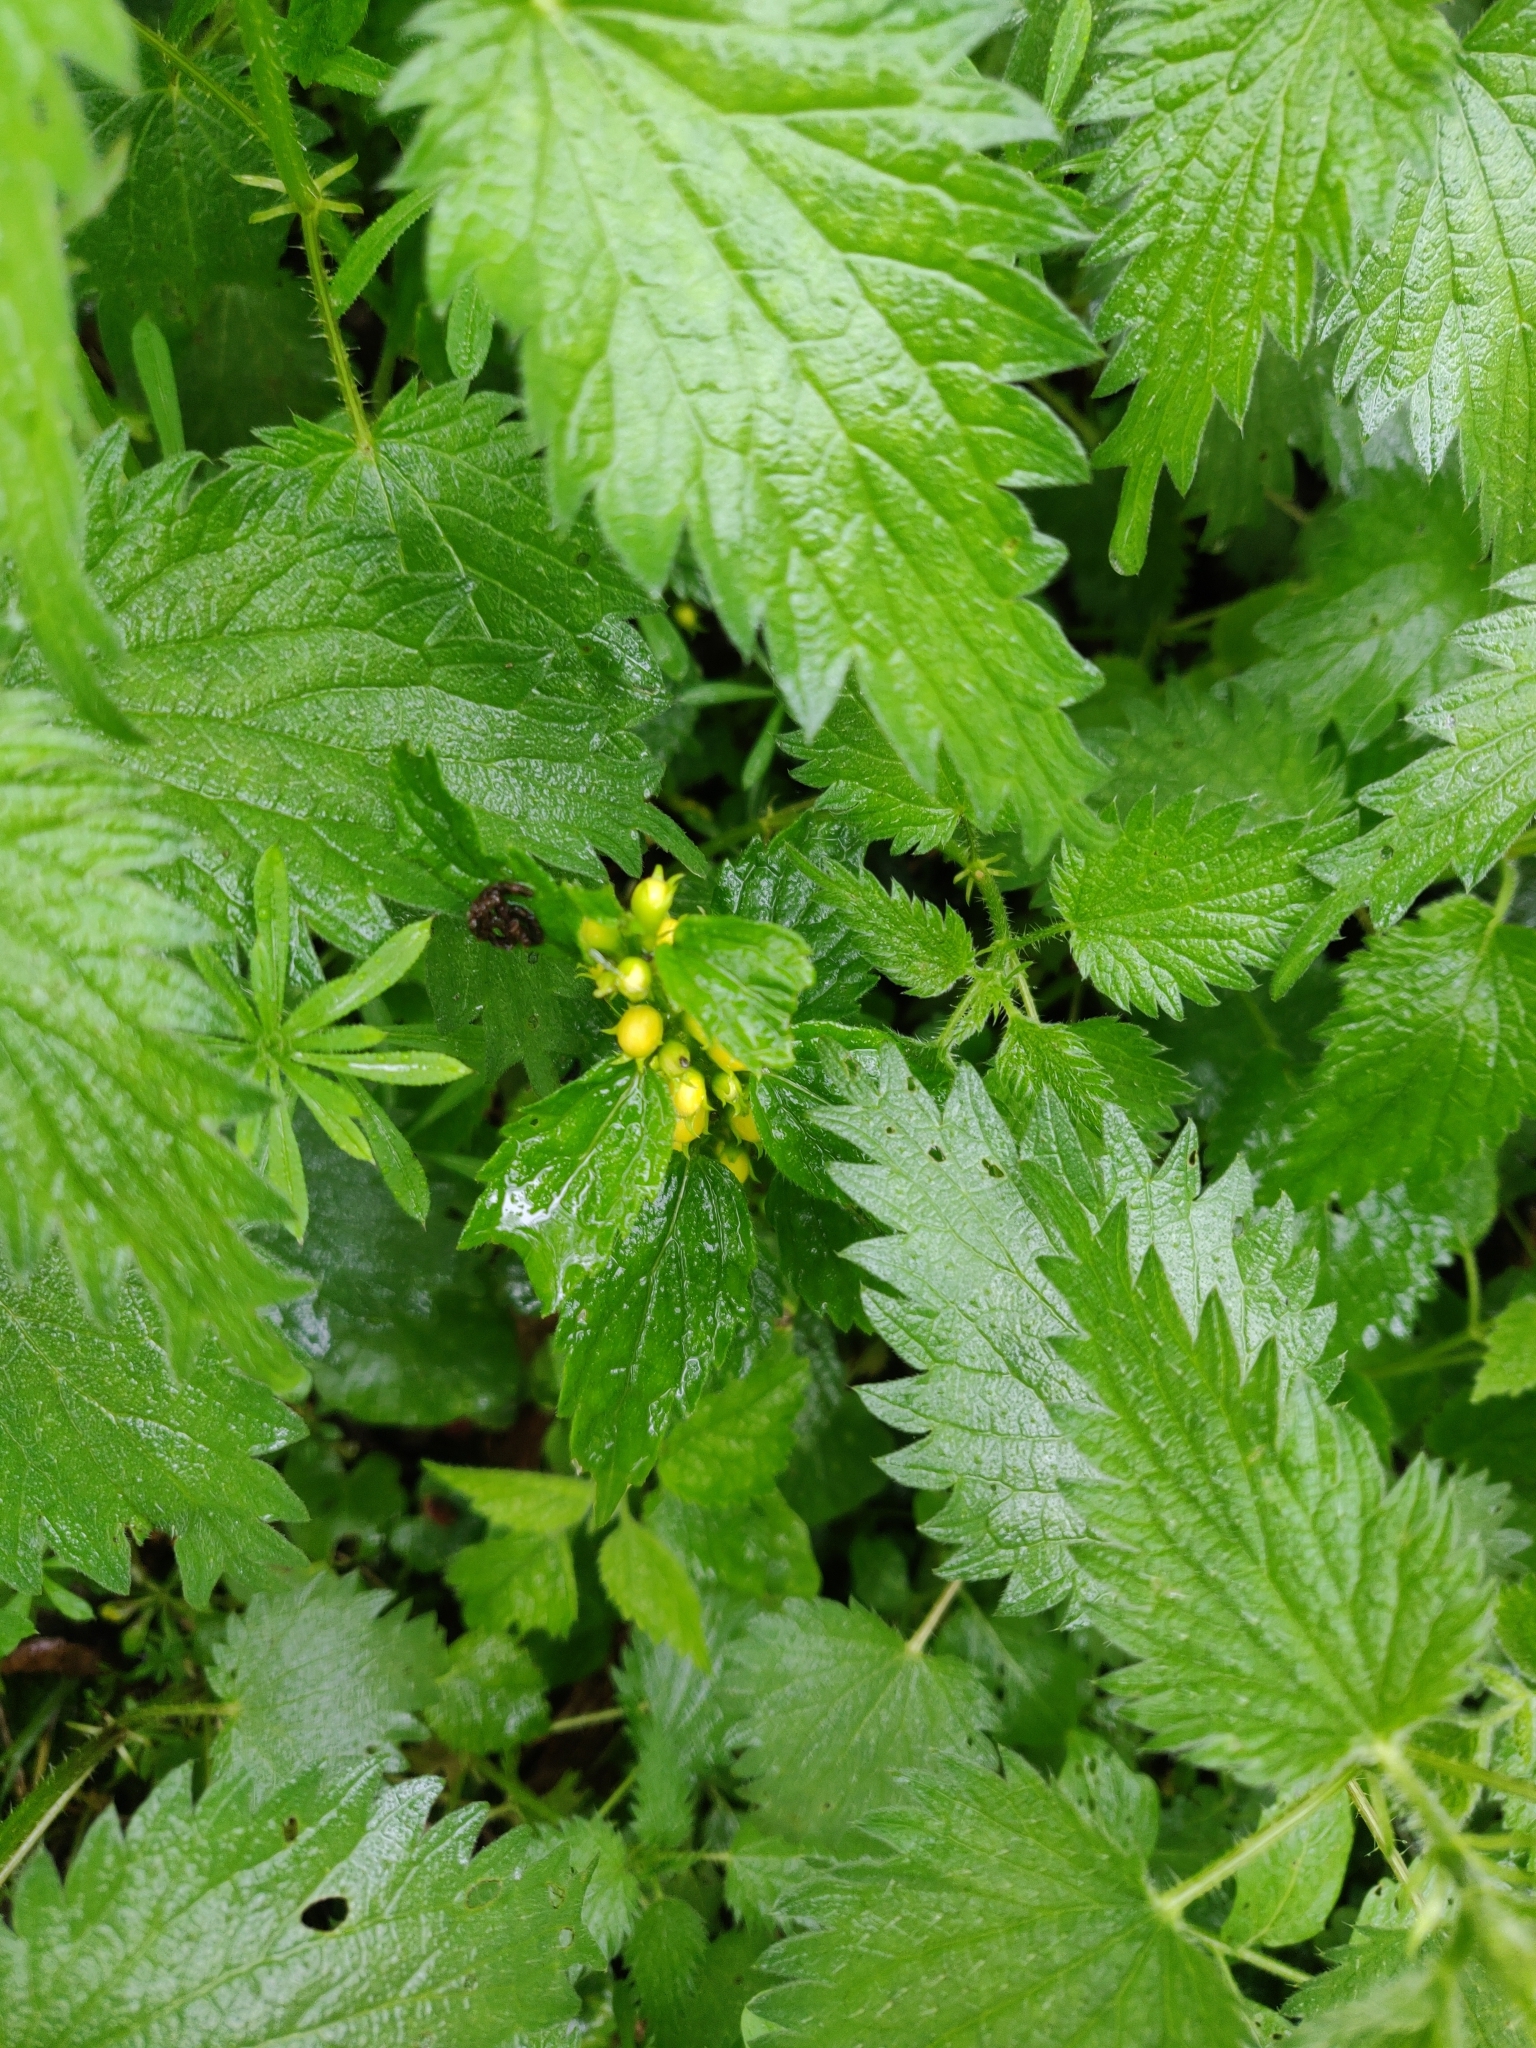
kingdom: Plantae
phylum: Tracheophyta
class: Magnoliopsida
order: Lamiales
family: Lamiaceae
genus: Lamium
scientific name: Lamium galeobdolon
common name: Yellow archangel
